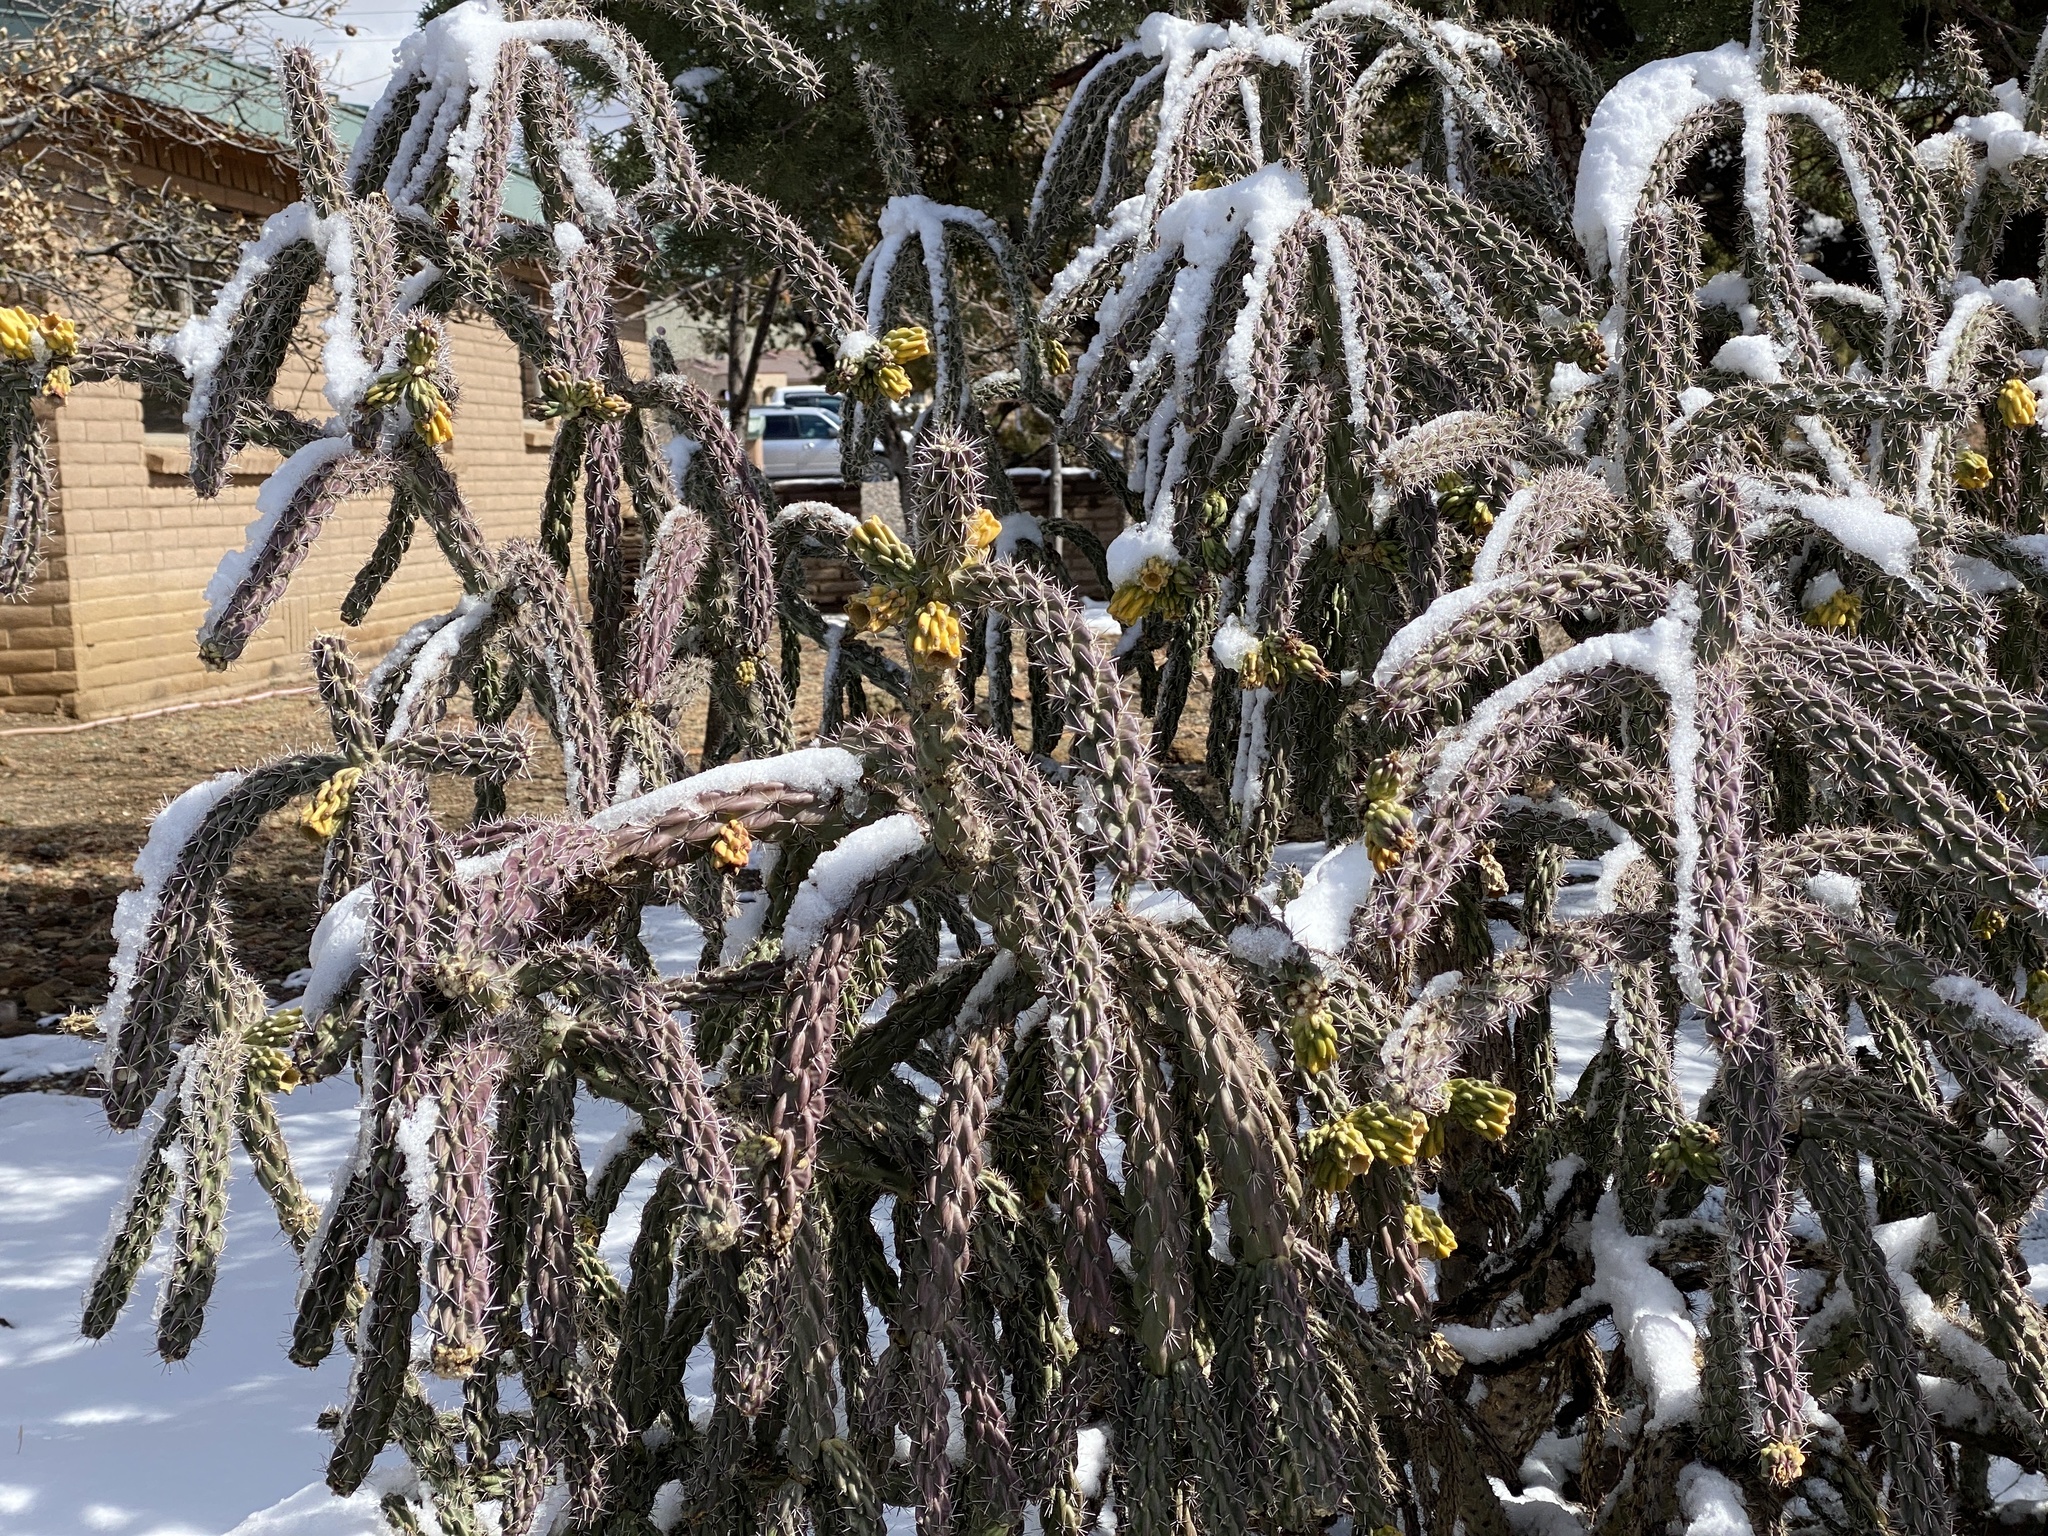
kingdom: Plantae
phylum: Tracheophyta
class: Magnoliopsida
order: Caryophyllales
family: Cactaceae
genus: Cylindropuntia
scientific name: Cylindropuntia imbricata
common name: Candelabrum cactus
